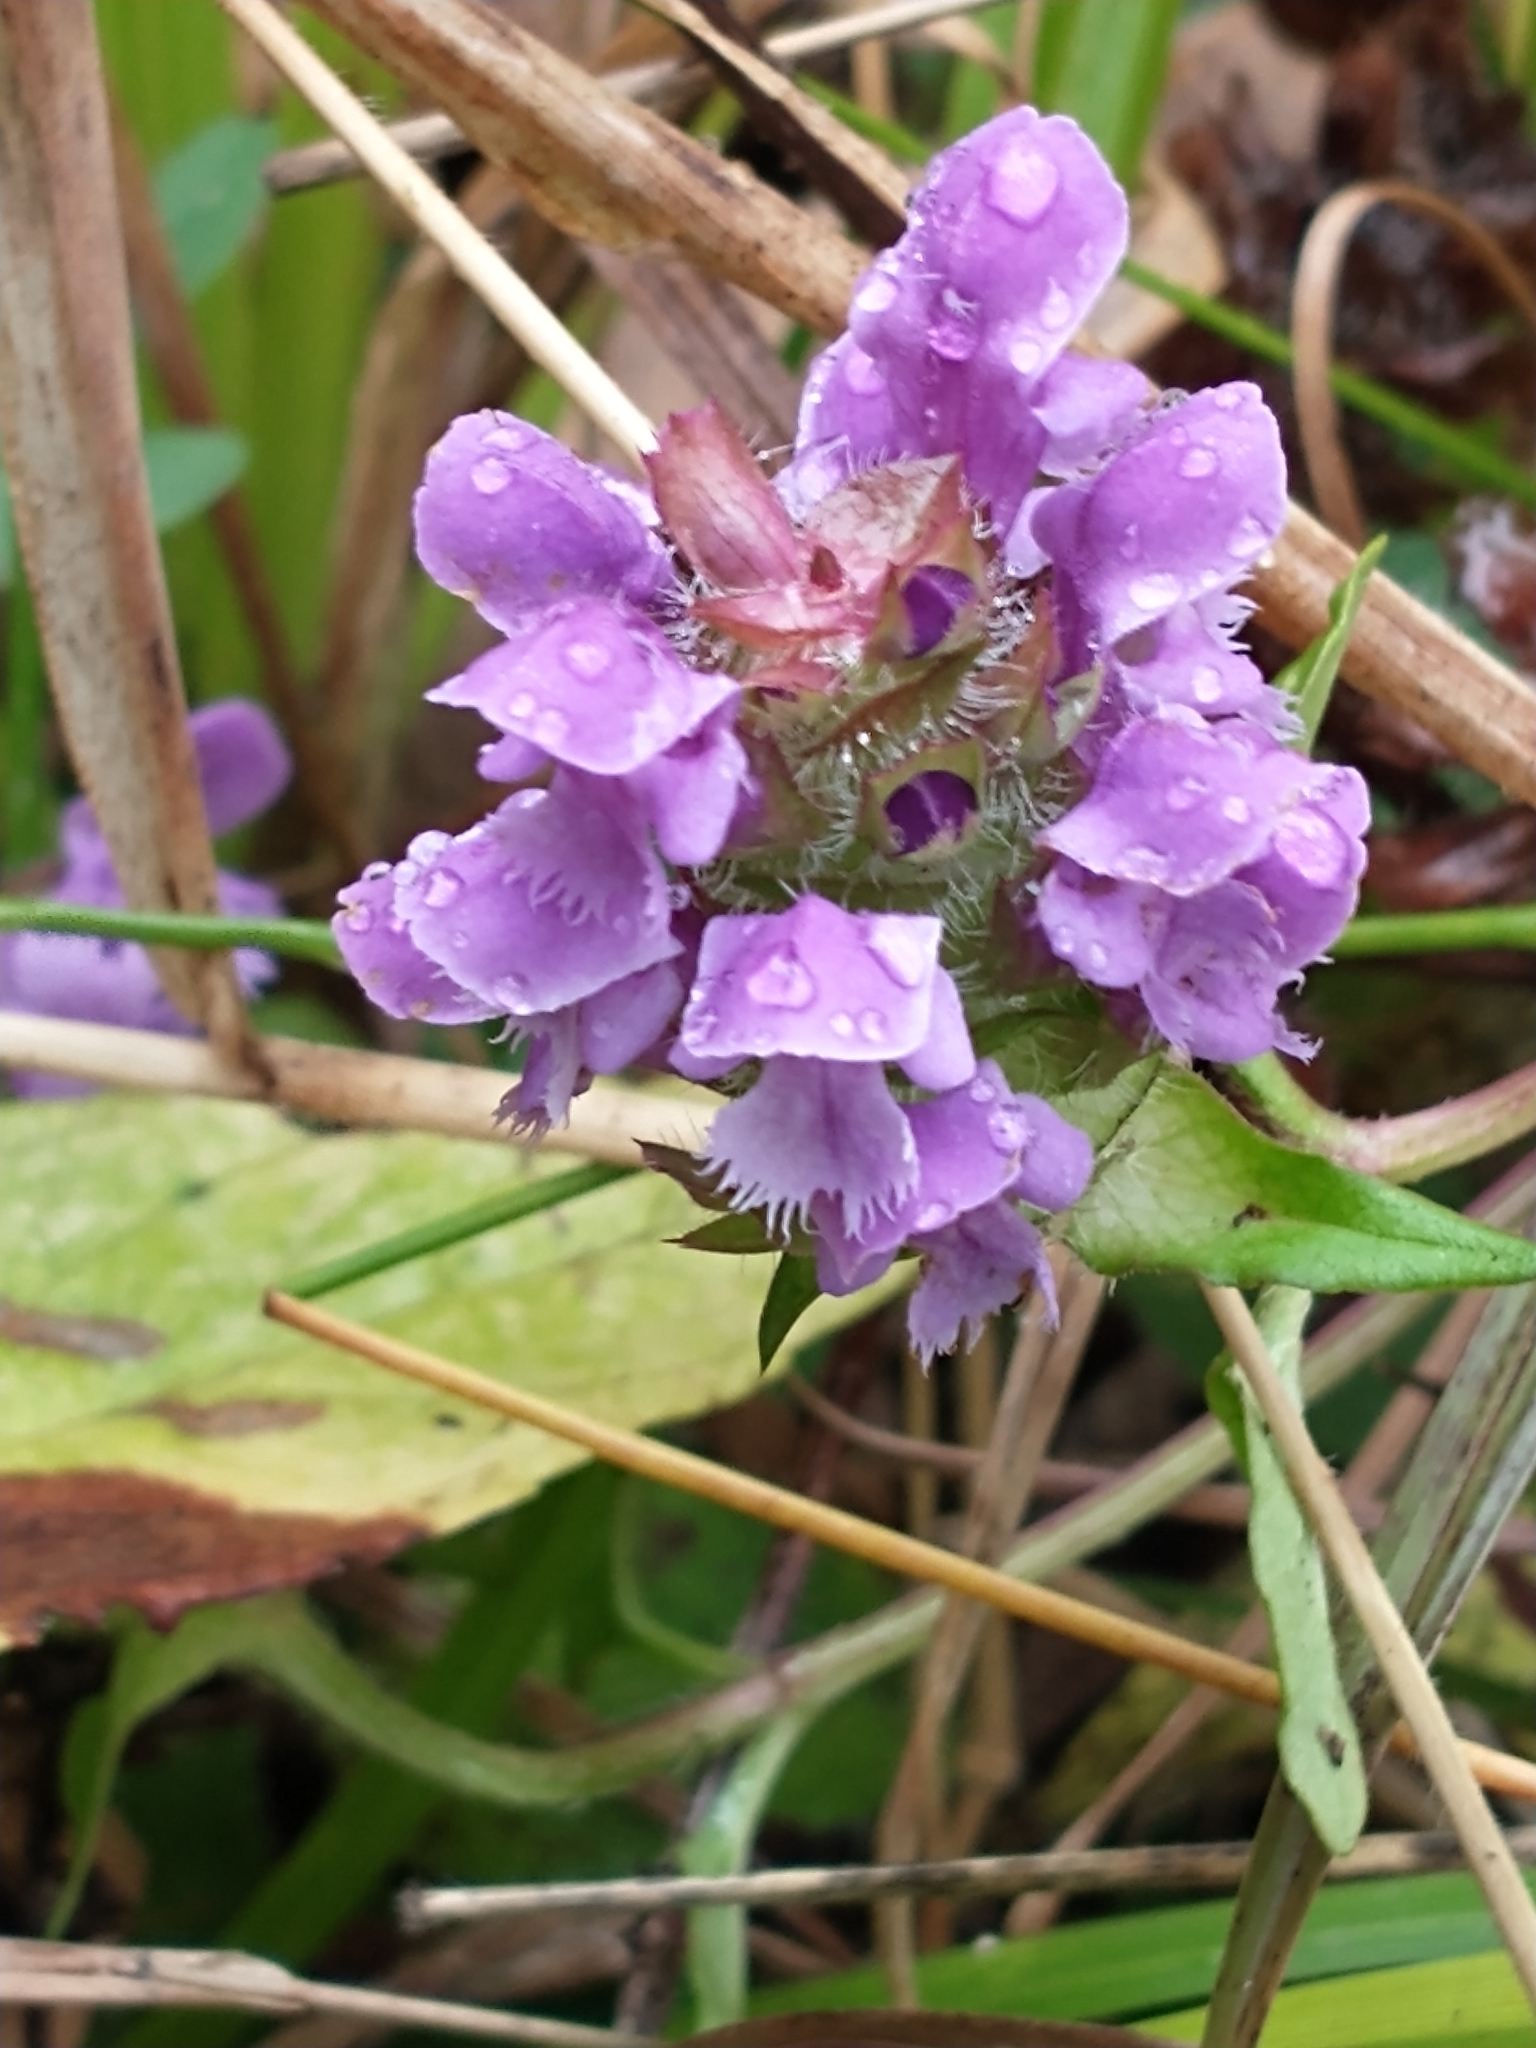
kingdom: Plantae
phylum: Tracheophyta
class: Magnoliopsida
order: Lamiales
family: Lamiaceae
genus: Prunella
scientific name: Prunella vulgaris
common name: Heal-all
